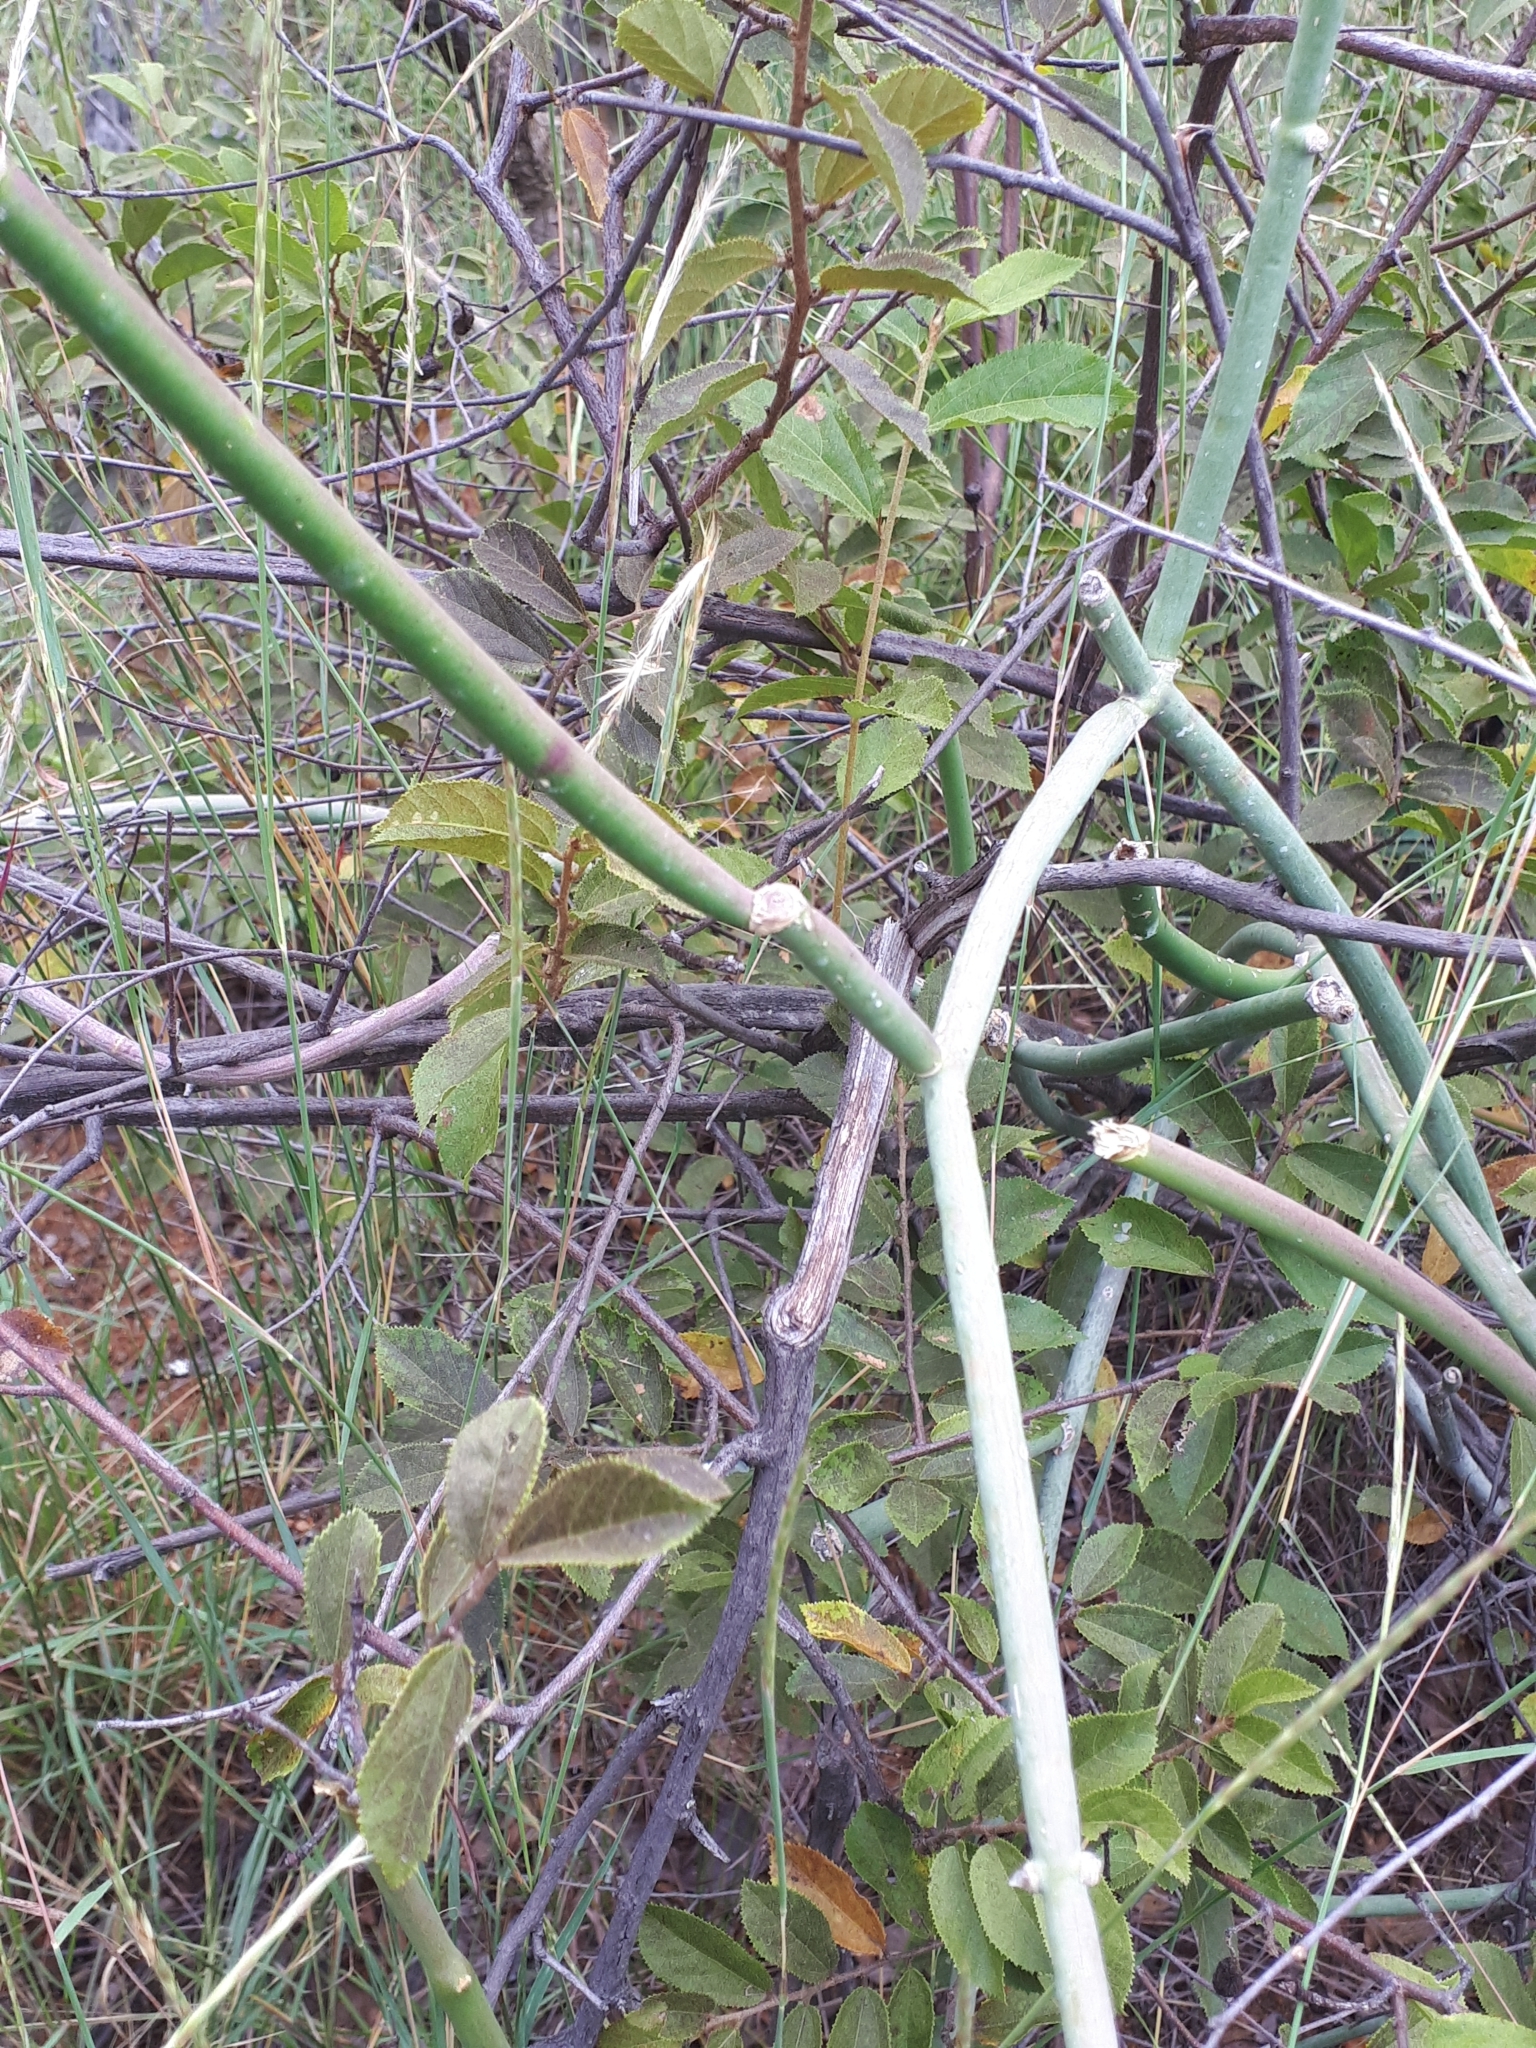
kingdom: Plantae
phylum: Tracheophyta
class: Magnoliopsida
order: Gentianales
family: Apocynaceae
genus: Cynanchum
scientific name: Cynanchum viminale
